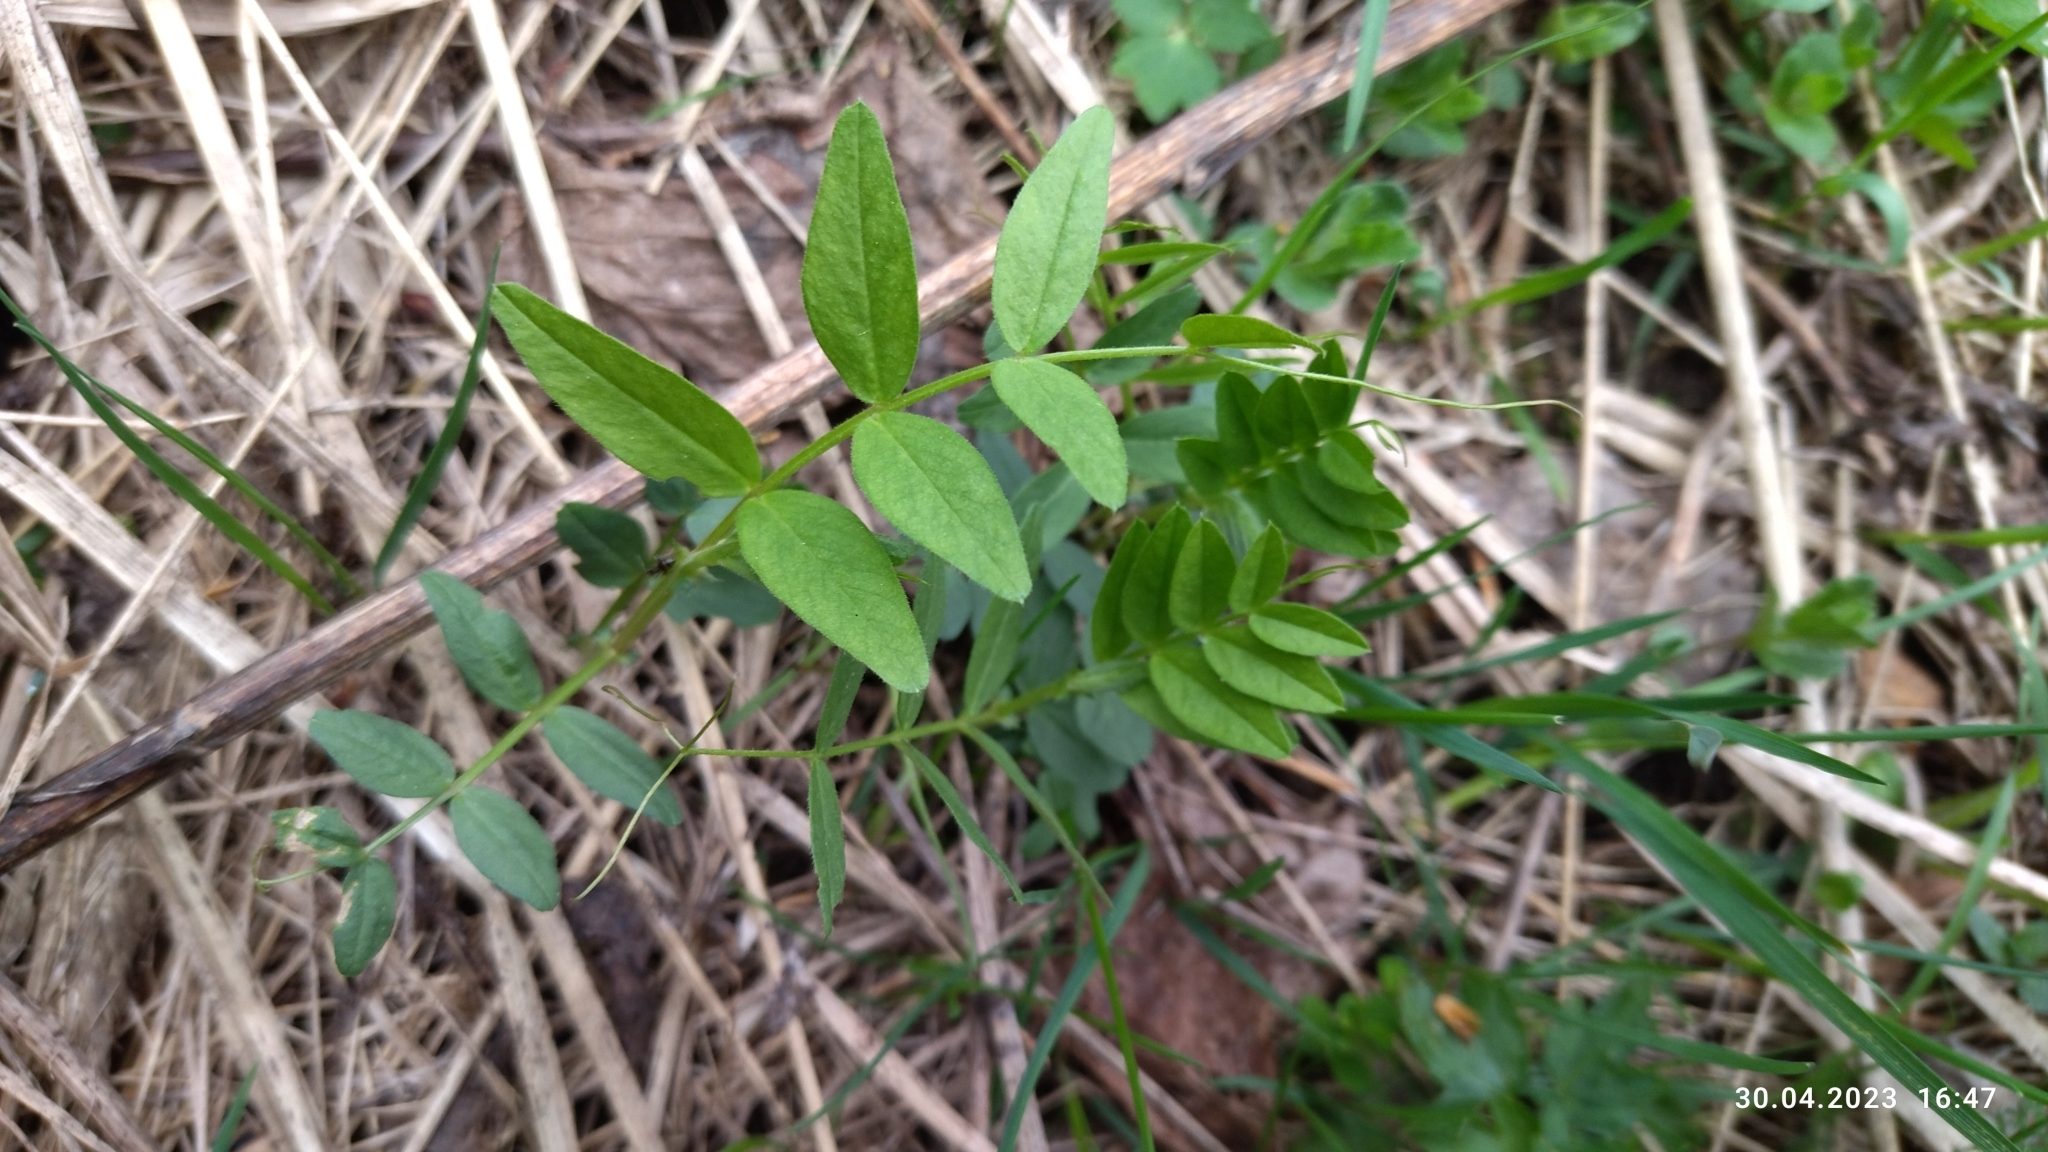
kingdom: Plantae
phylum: Tracheophyta
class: Magnoliopsida
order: Fabales
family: Fabaceae
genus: Vicia
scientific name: Vicia sepium
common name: Bush vetch
